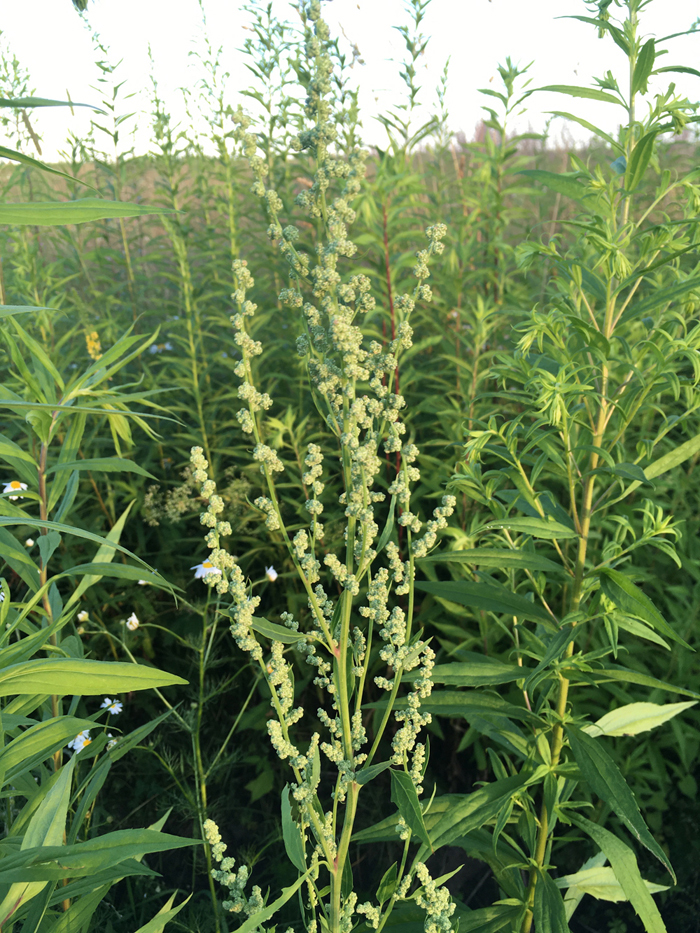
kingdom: Plantae
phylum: Tracheophyta
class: Magnoliopsida
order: Caryophyllales
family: Amaranthaceae
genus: Chenopodium
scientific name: Chenopodium album
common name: Fat-hen
